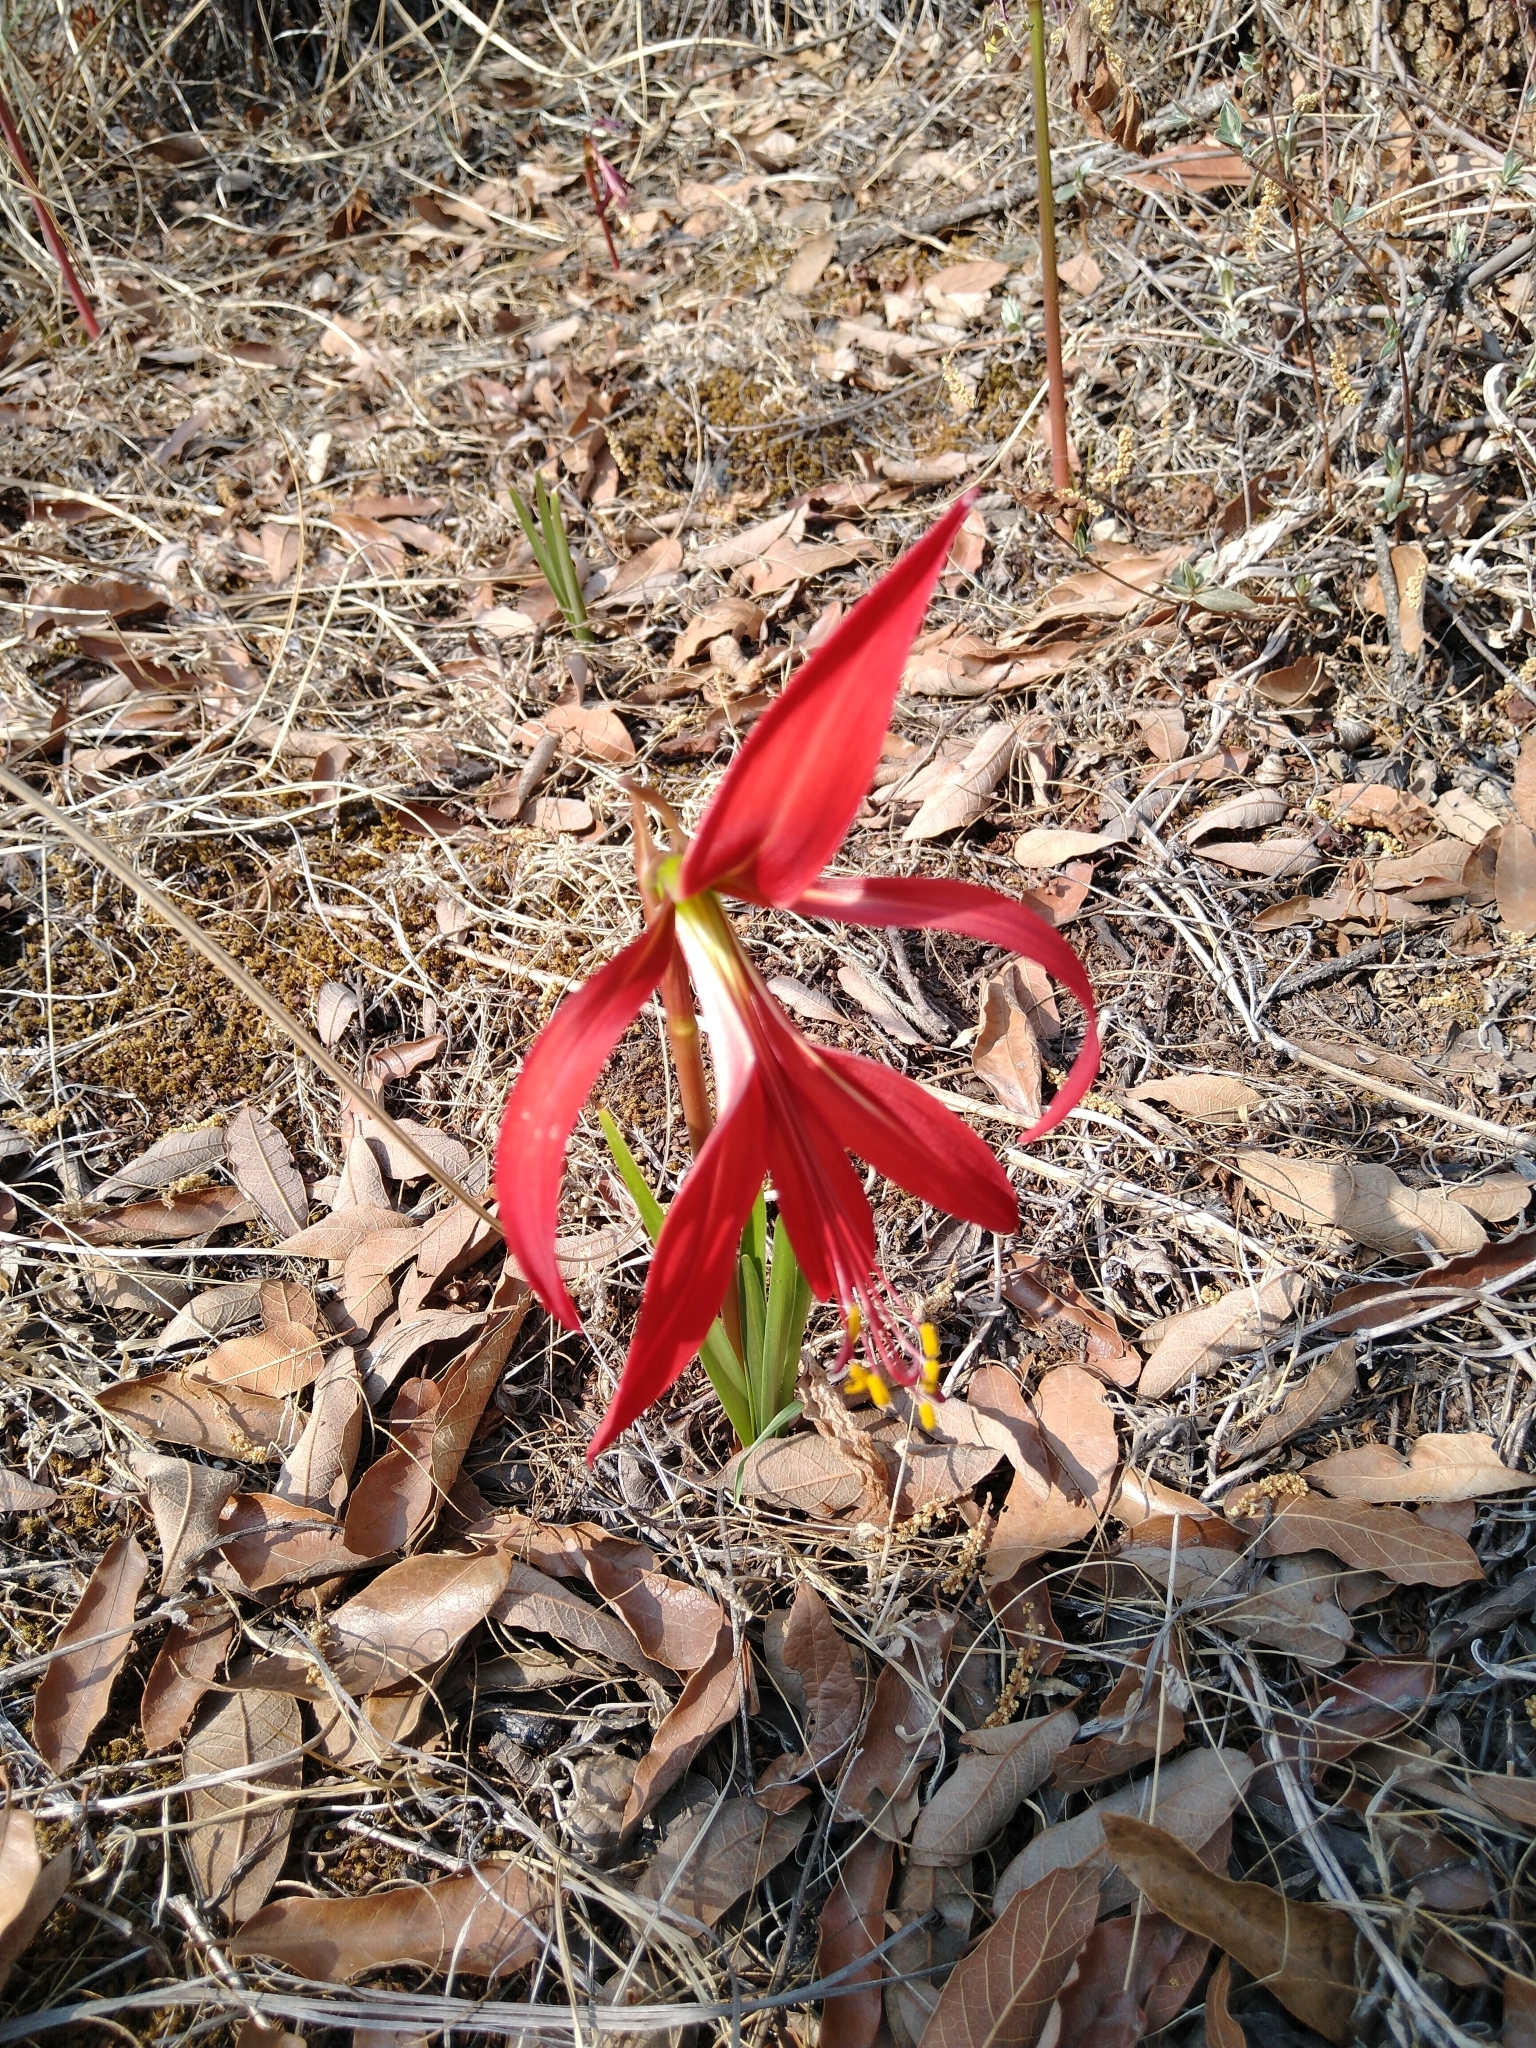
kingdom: Plantae
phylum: Tracheophyta
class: Liliopsida
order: Asparagales
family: Amaryllidaceae
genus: Sprekelia
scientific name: Sprekelia formosissima
